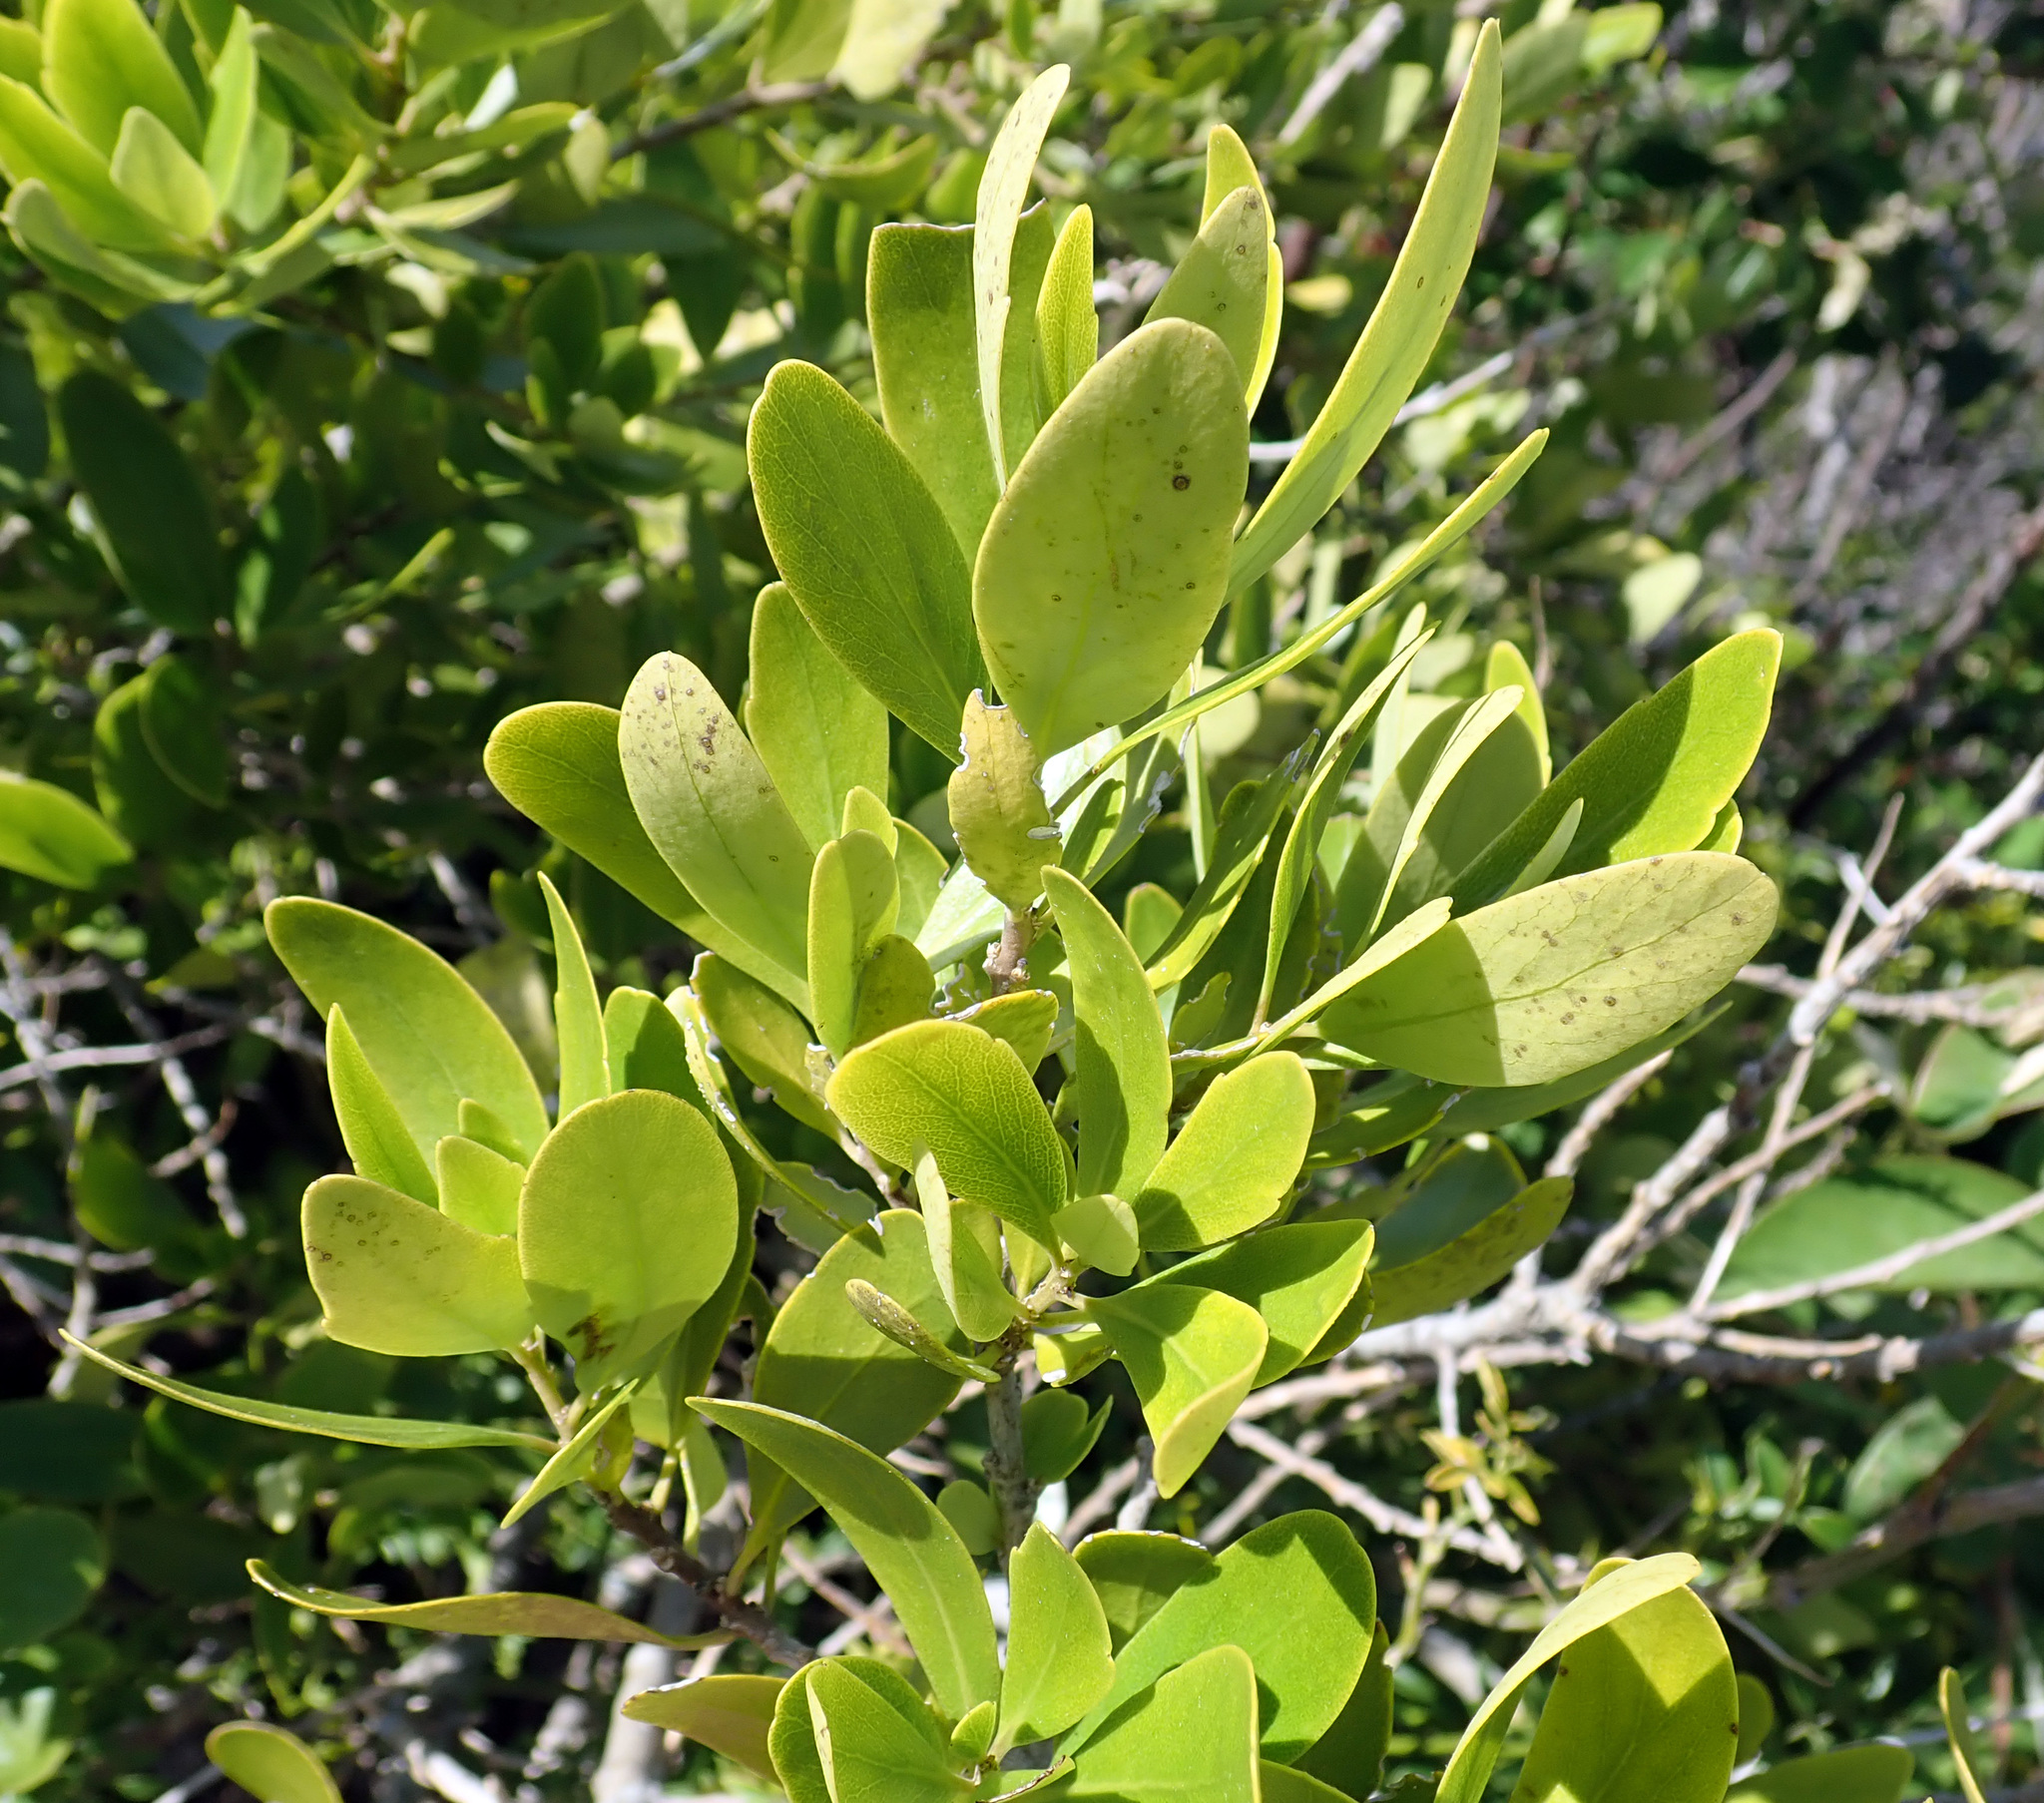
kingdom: Plantae
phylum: Tracheophyta
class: Magnoliopsida
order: Malpighiales
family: Violaceae
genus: Melicytus
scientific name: Melicytus obovatus
